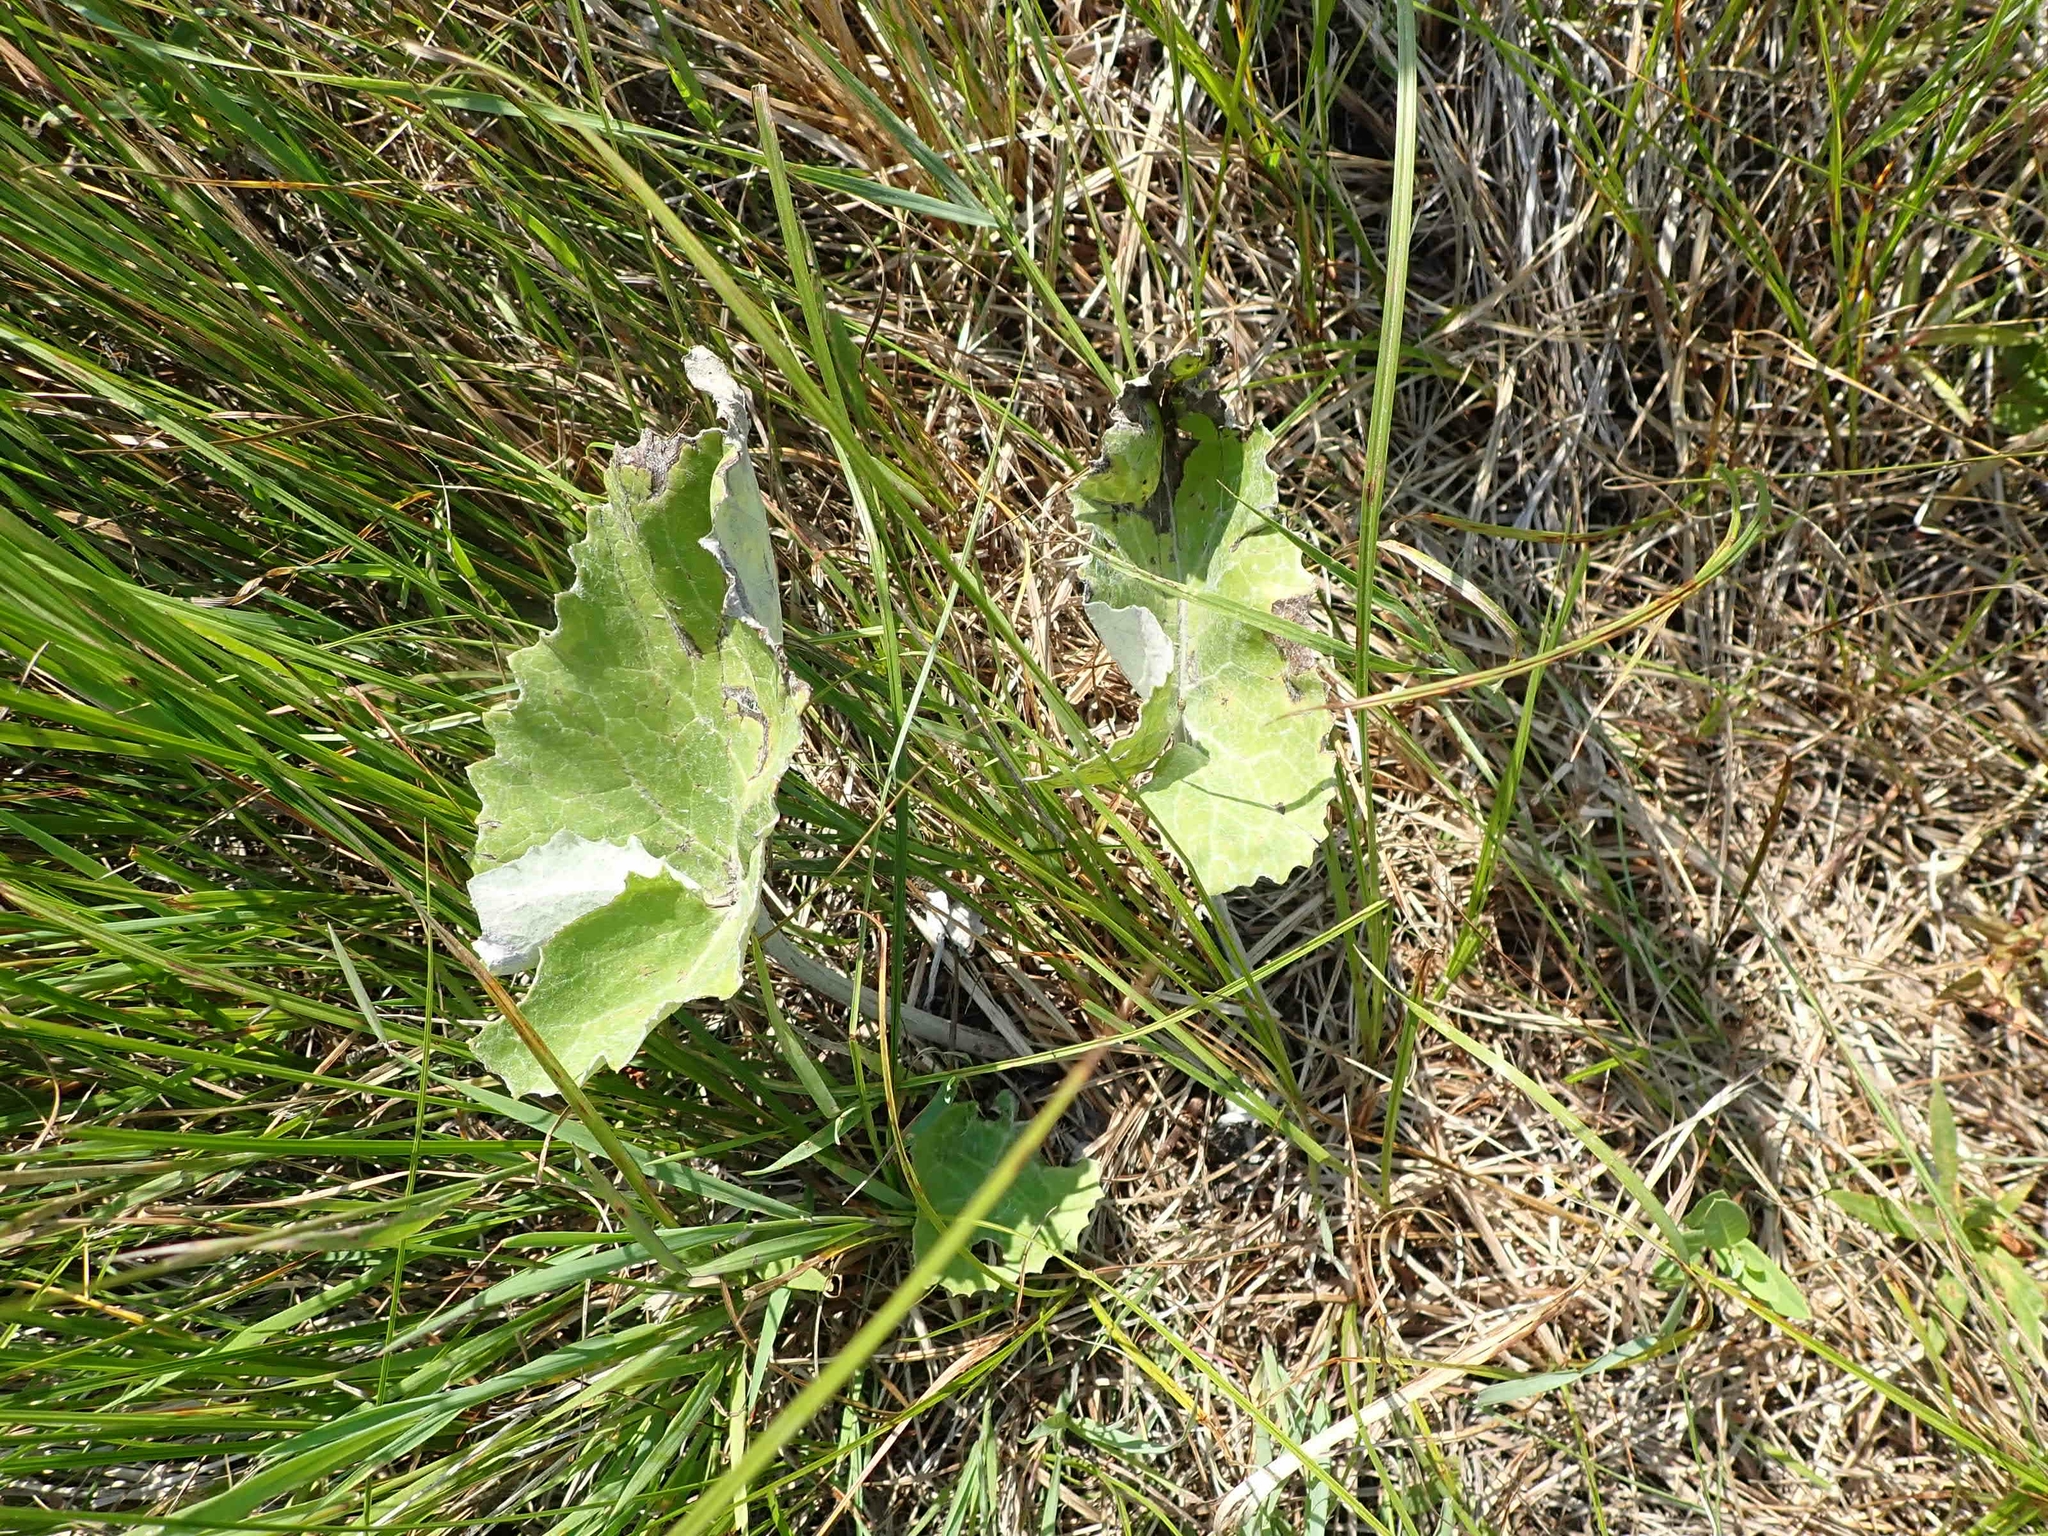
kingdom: Plantae
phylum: Tracheophyta
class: Magnoliopsida
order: Asterales
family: Asteraceae
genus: Petasites
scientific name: Petasites frigidus
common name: Arctic butterbur
